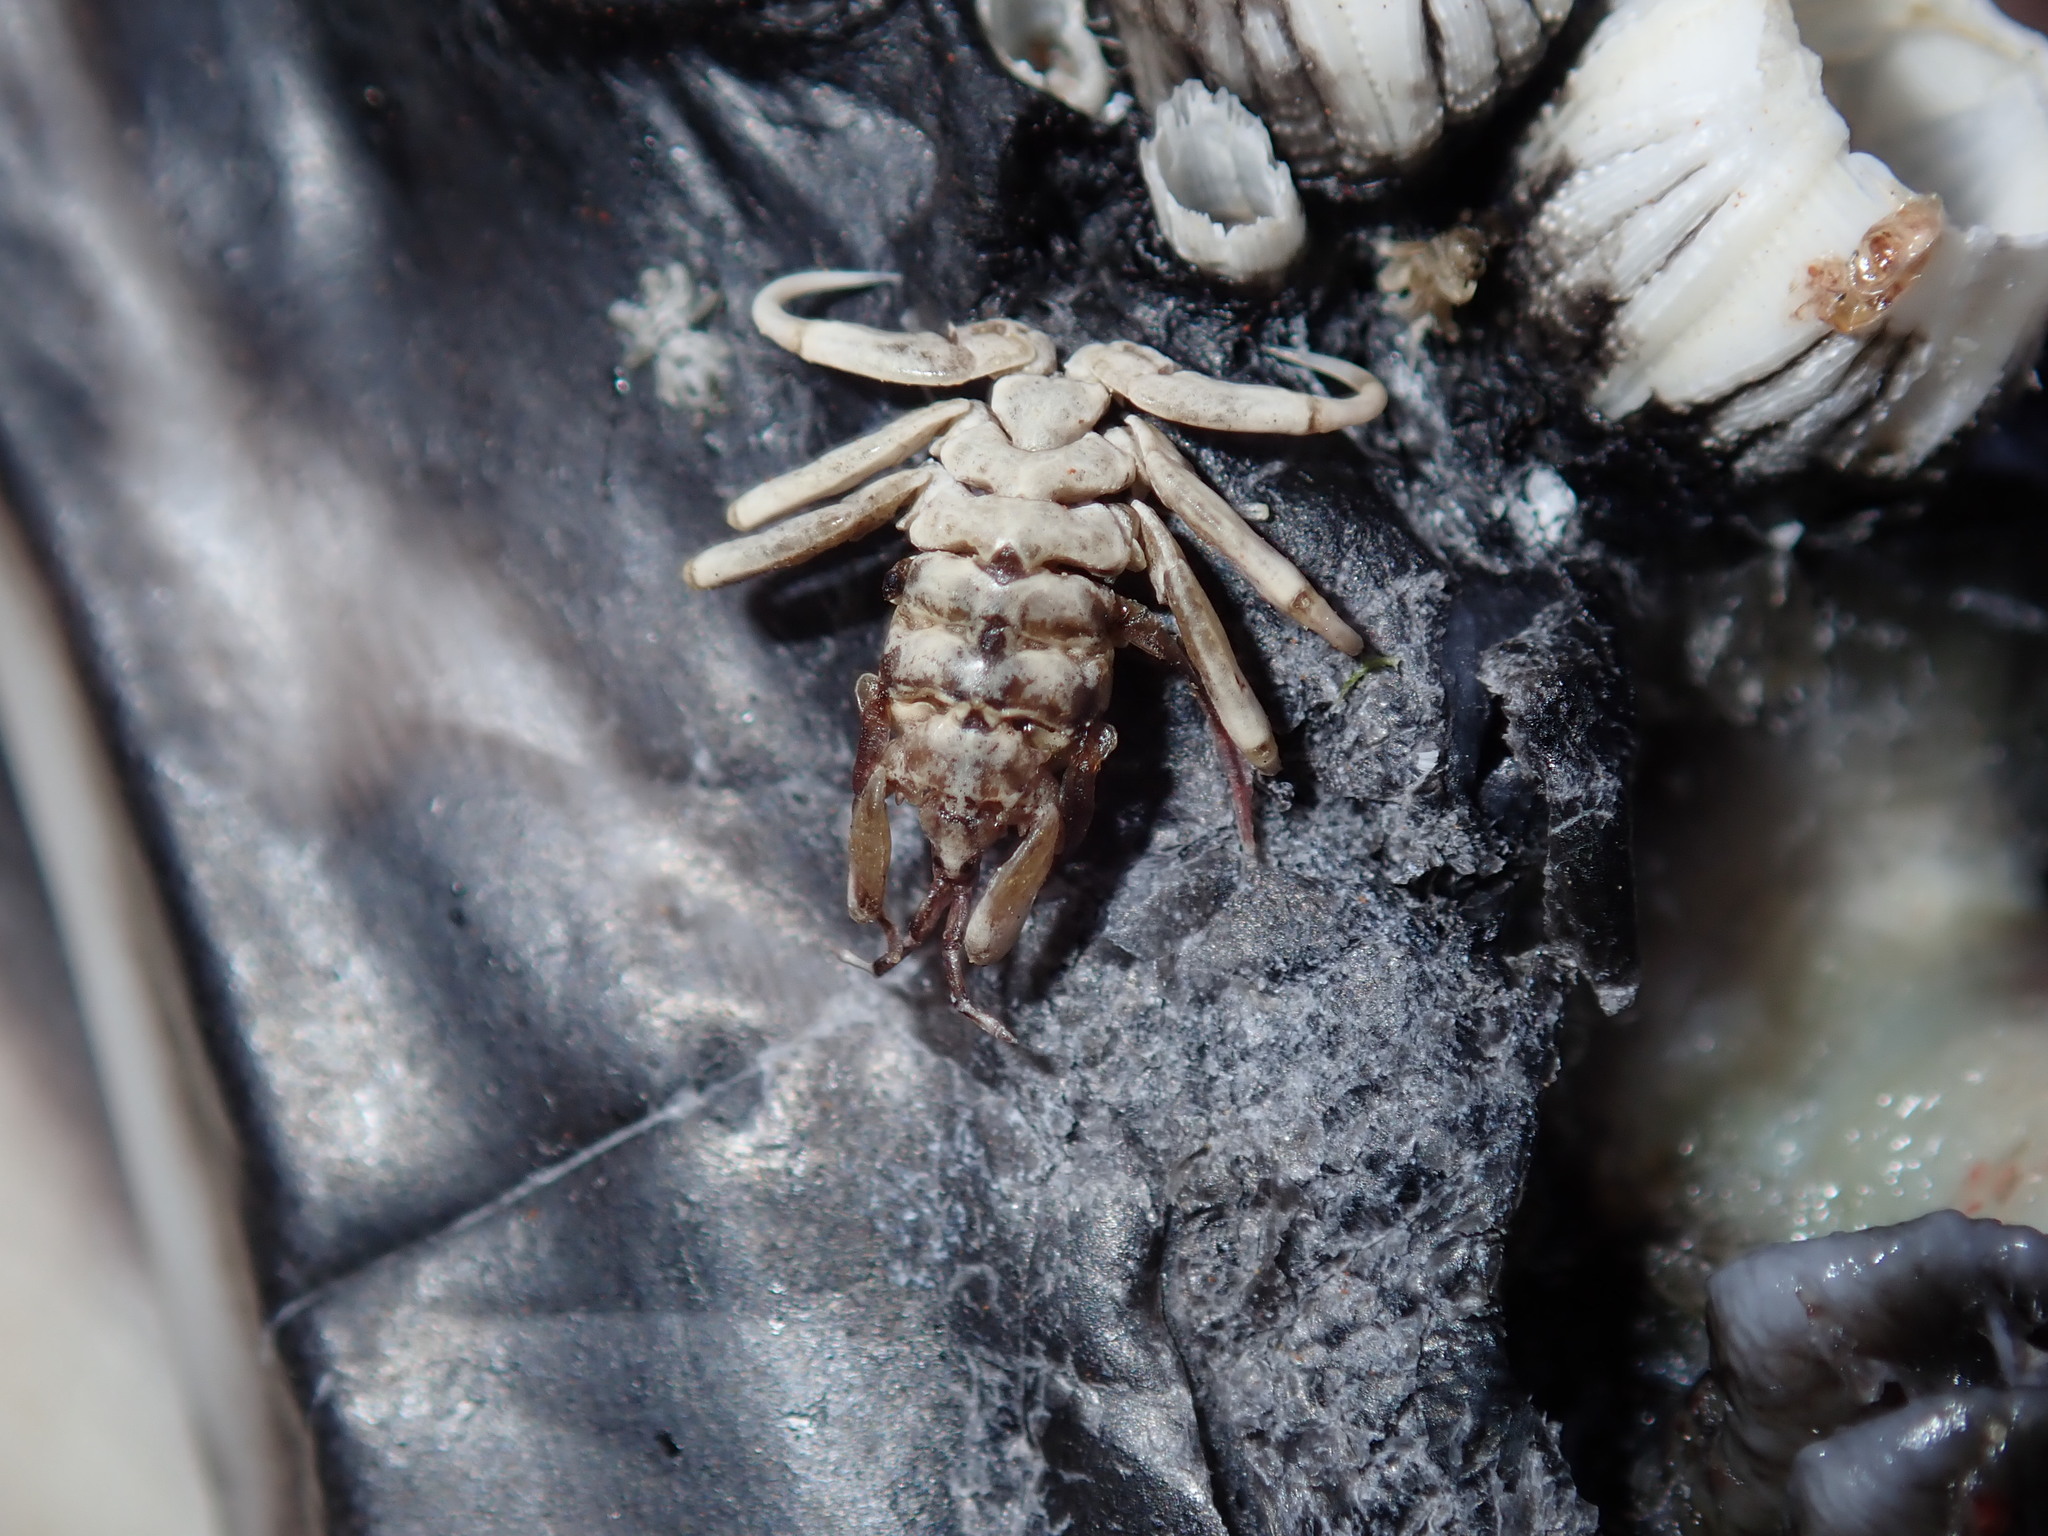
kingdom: Animalia
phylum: Arthropoda
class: Malacostraca
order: Amphipoda
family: Cyamidae
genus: Cyamus
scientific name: Cyamus boopis
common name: Whale-louse
